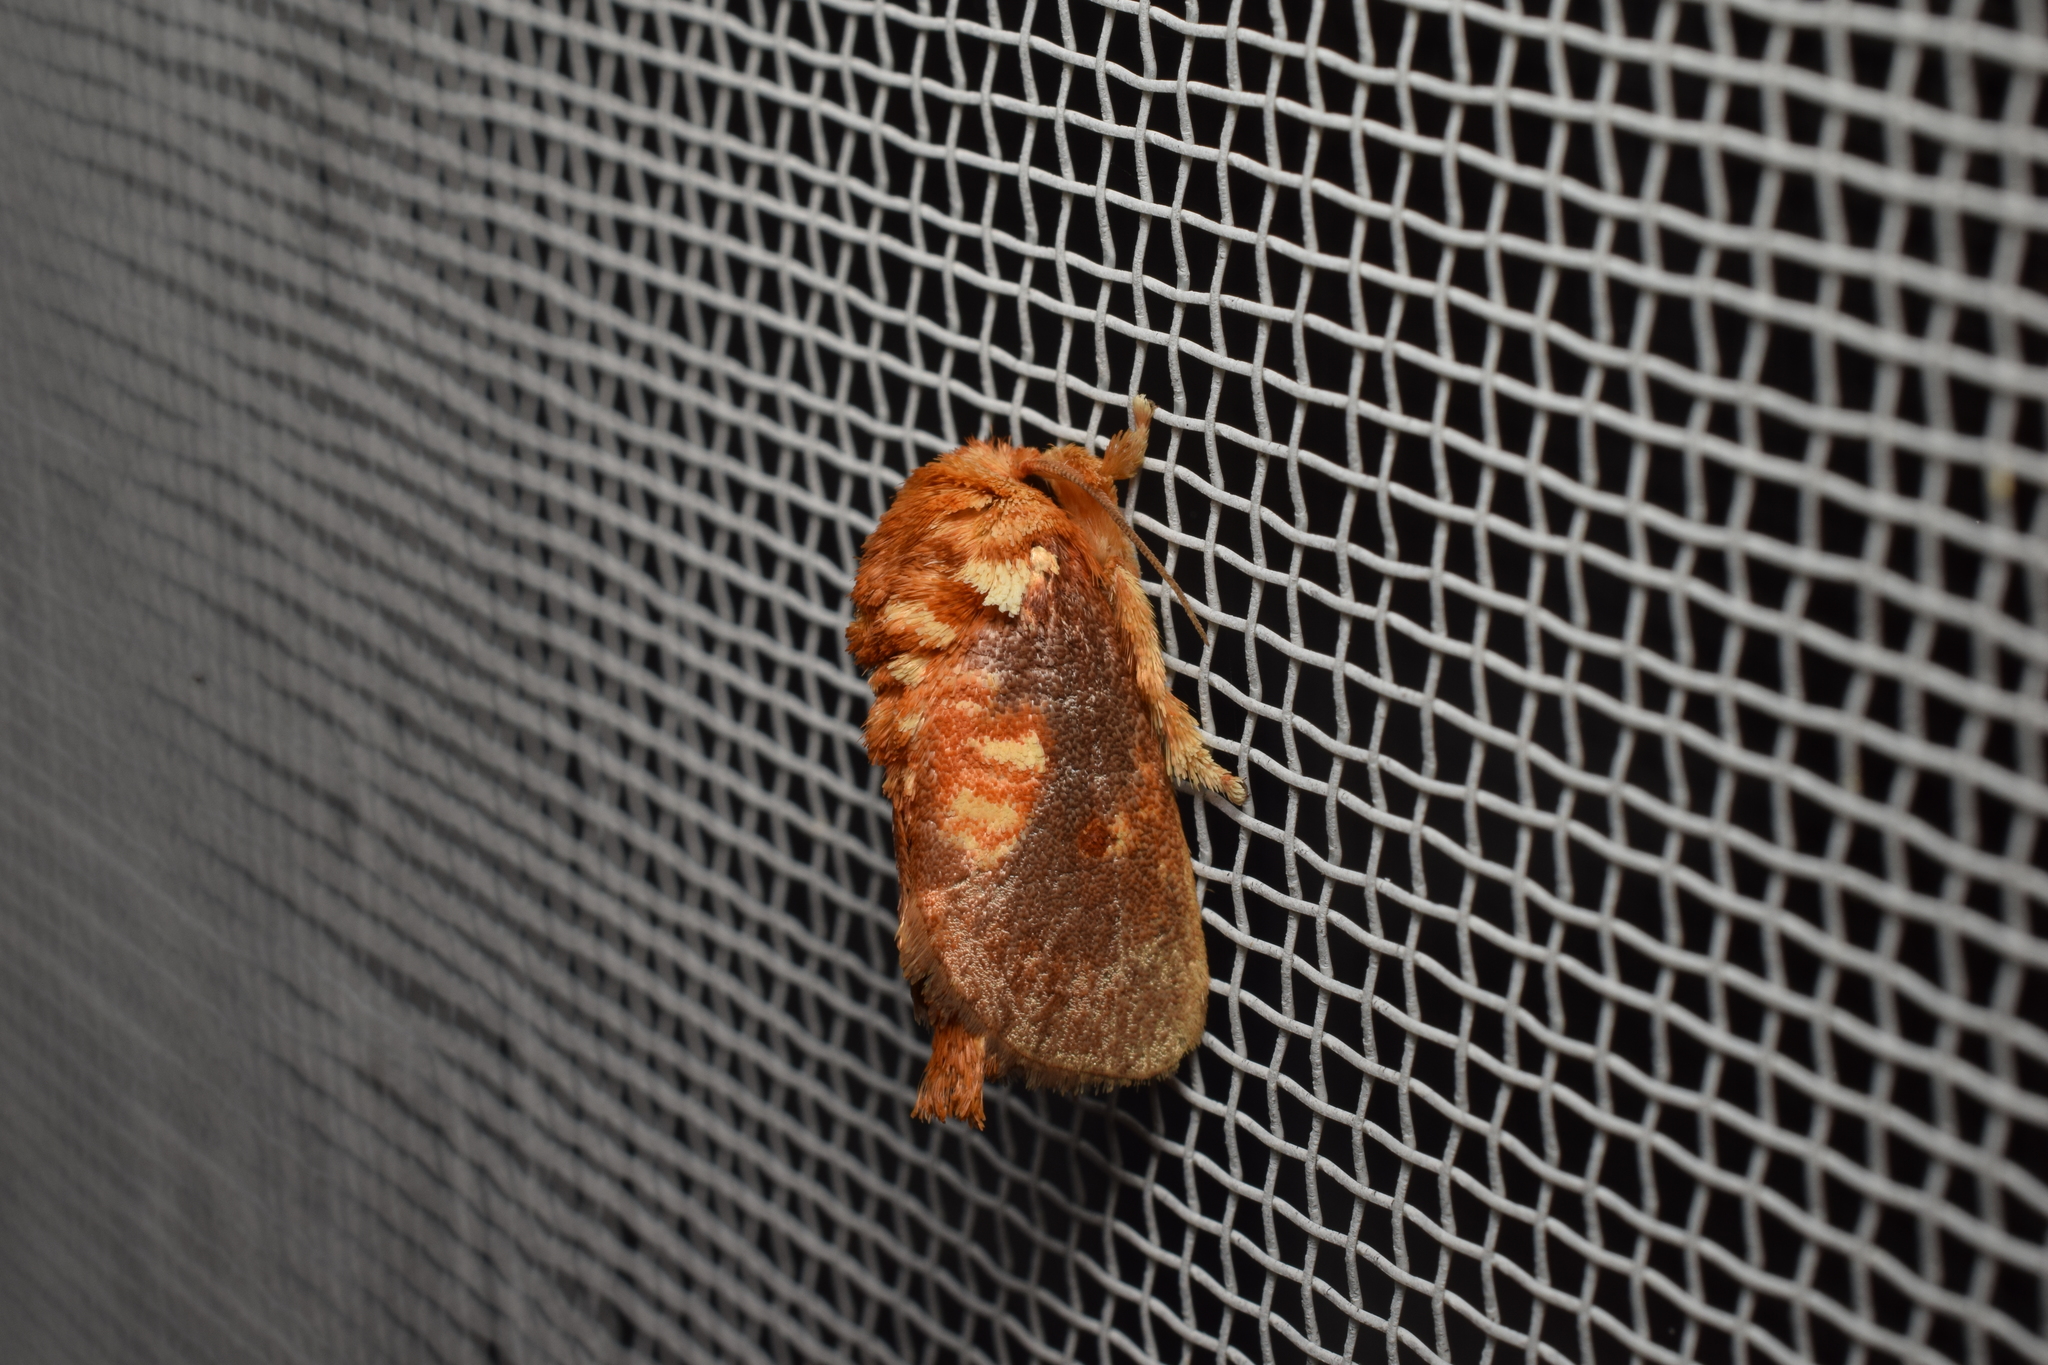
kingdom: Animalia
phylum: Arthropoda
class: Insecta
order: Lepidoptera
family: Limacodidae
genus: Demonarosa
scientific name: Demonarosa rufotessellata
